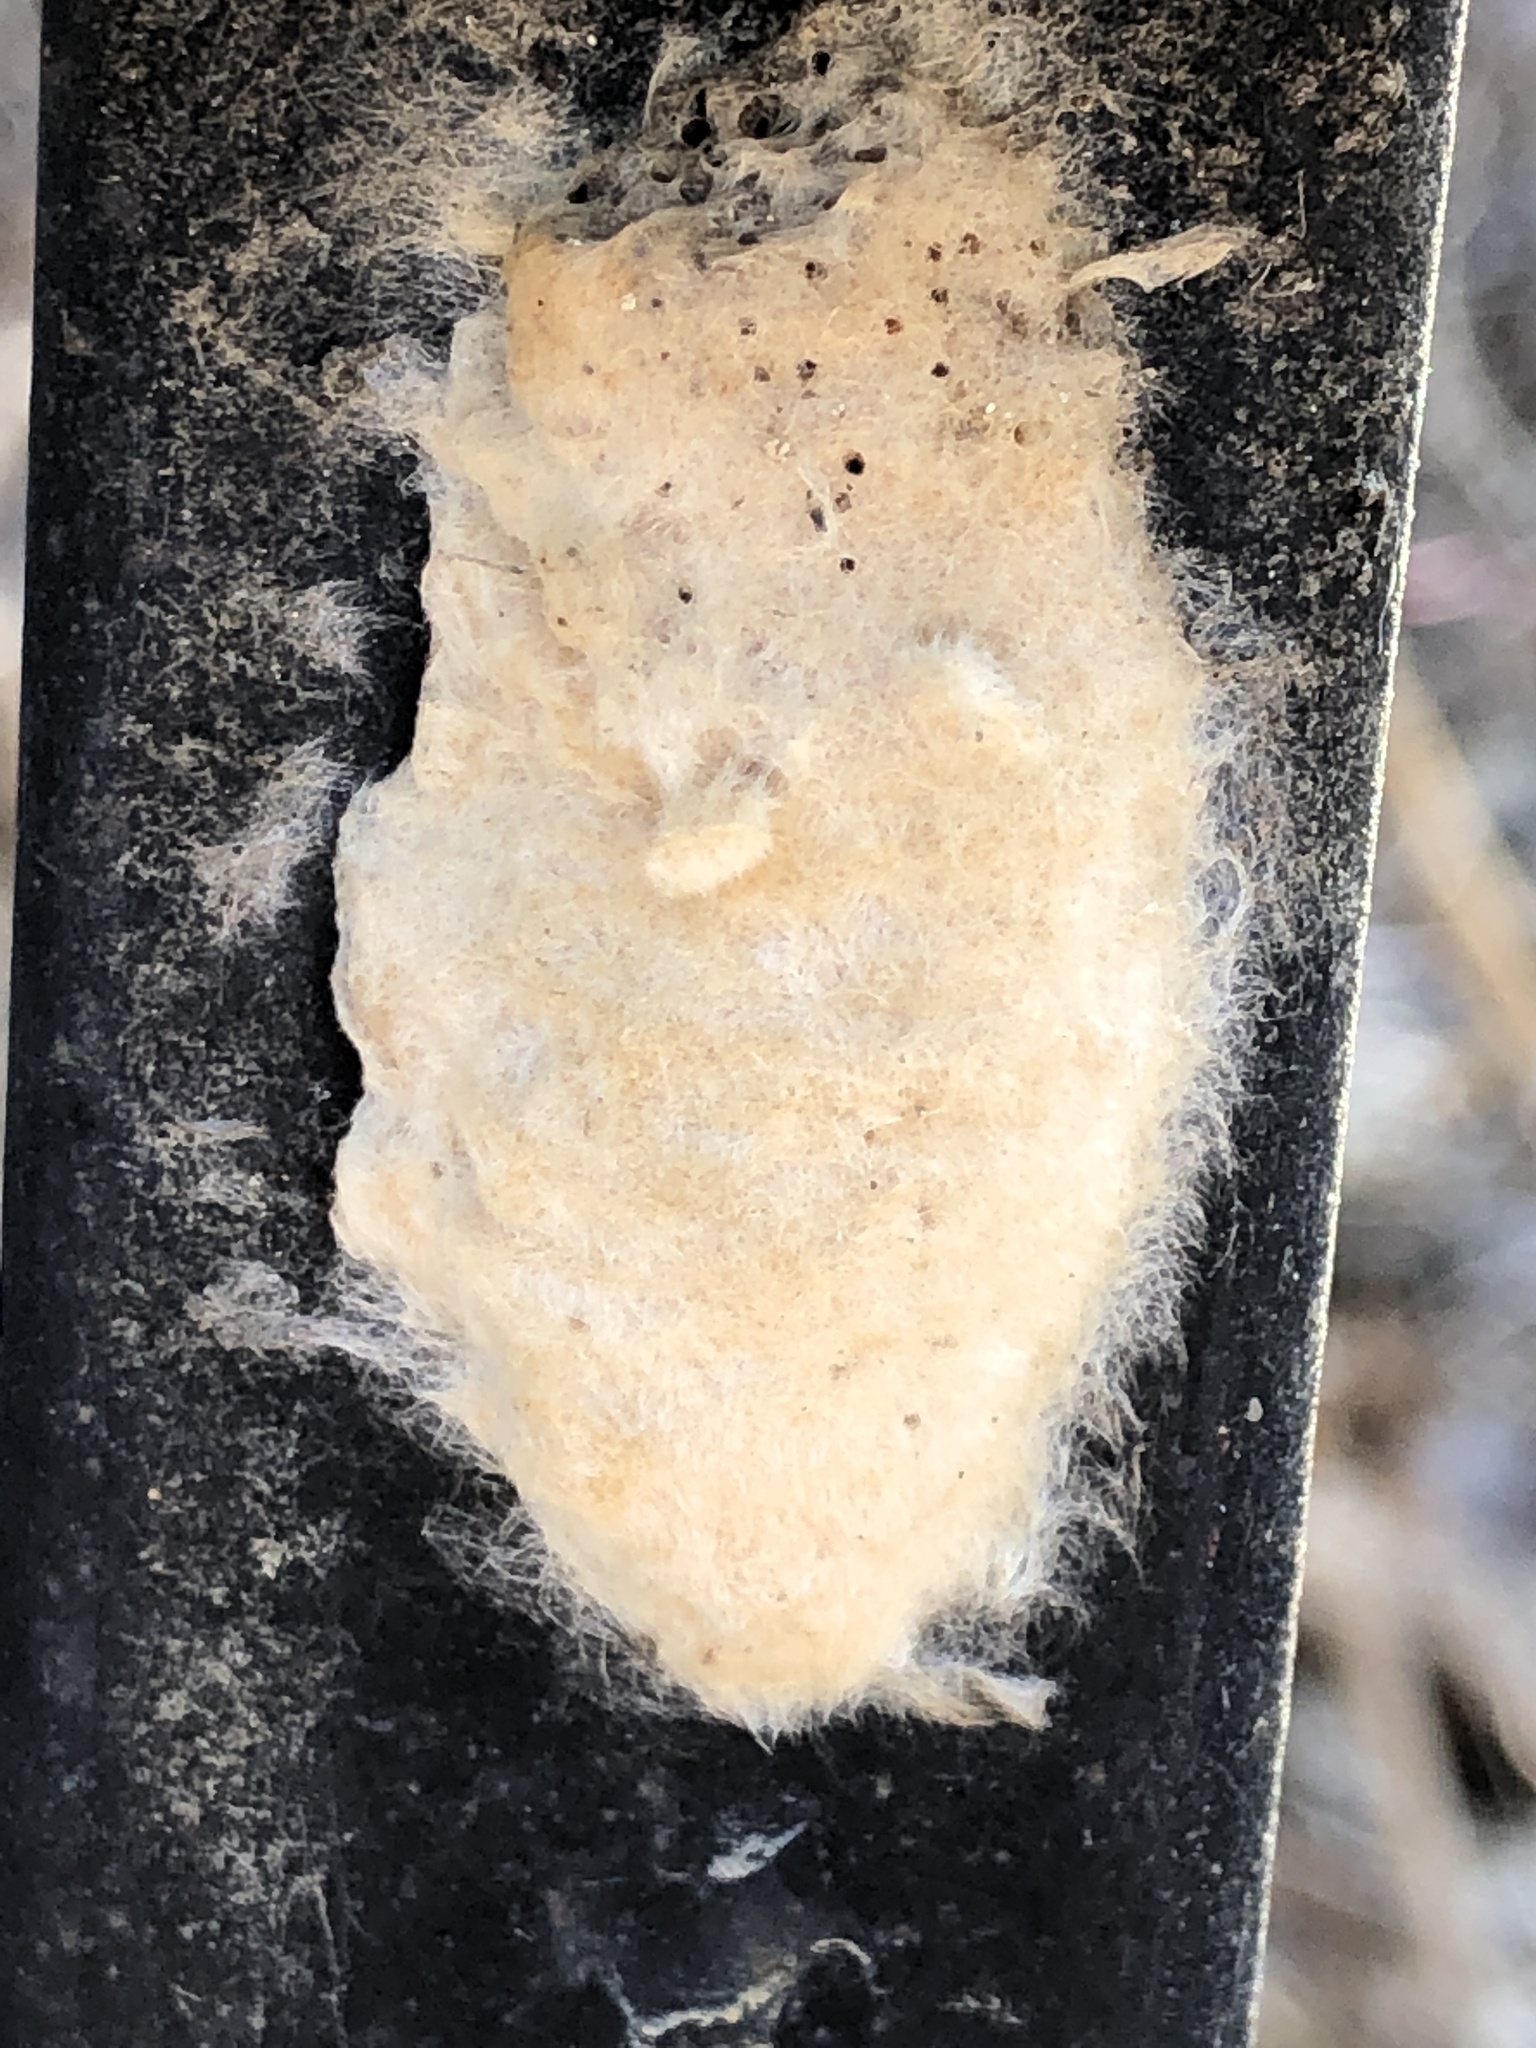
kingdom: Animalia
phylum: Arthropoda
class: Insecta
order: Lepidoptera
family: Erebidae
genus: Lymantria
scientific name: Lymantria dispar
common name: Gypsy moth
